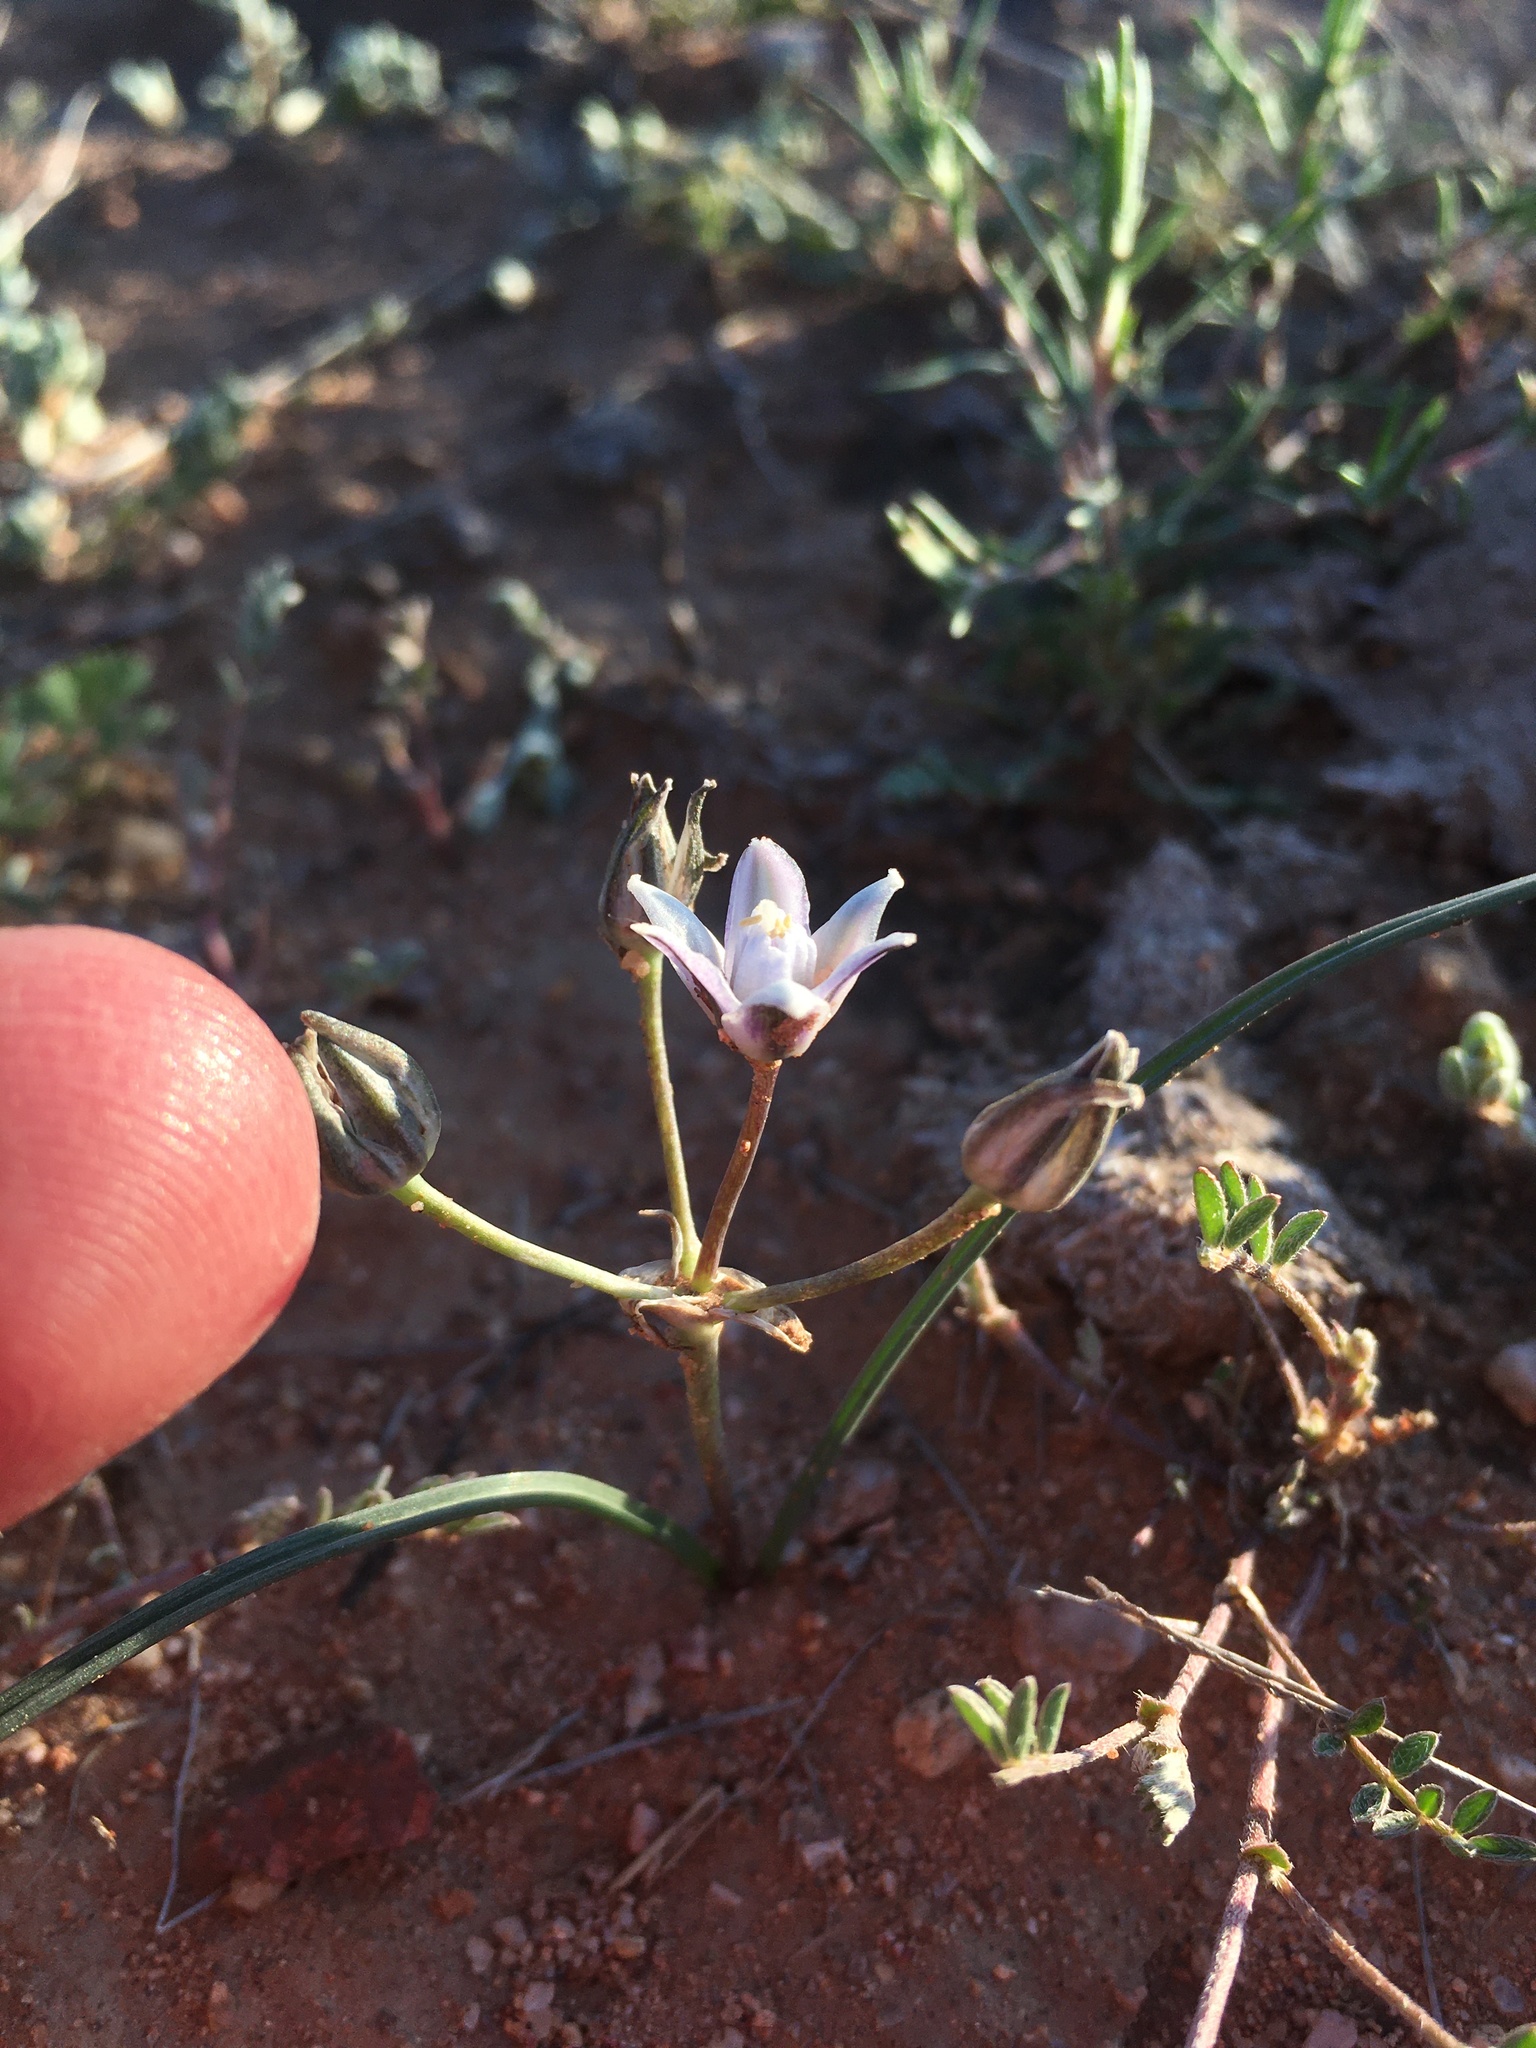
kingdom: Plantae
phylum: Tracheophyta
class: Liliopsida
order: Asparagales
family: Asparagaceae
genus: Muilla
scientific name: Muilla lordsburgana
